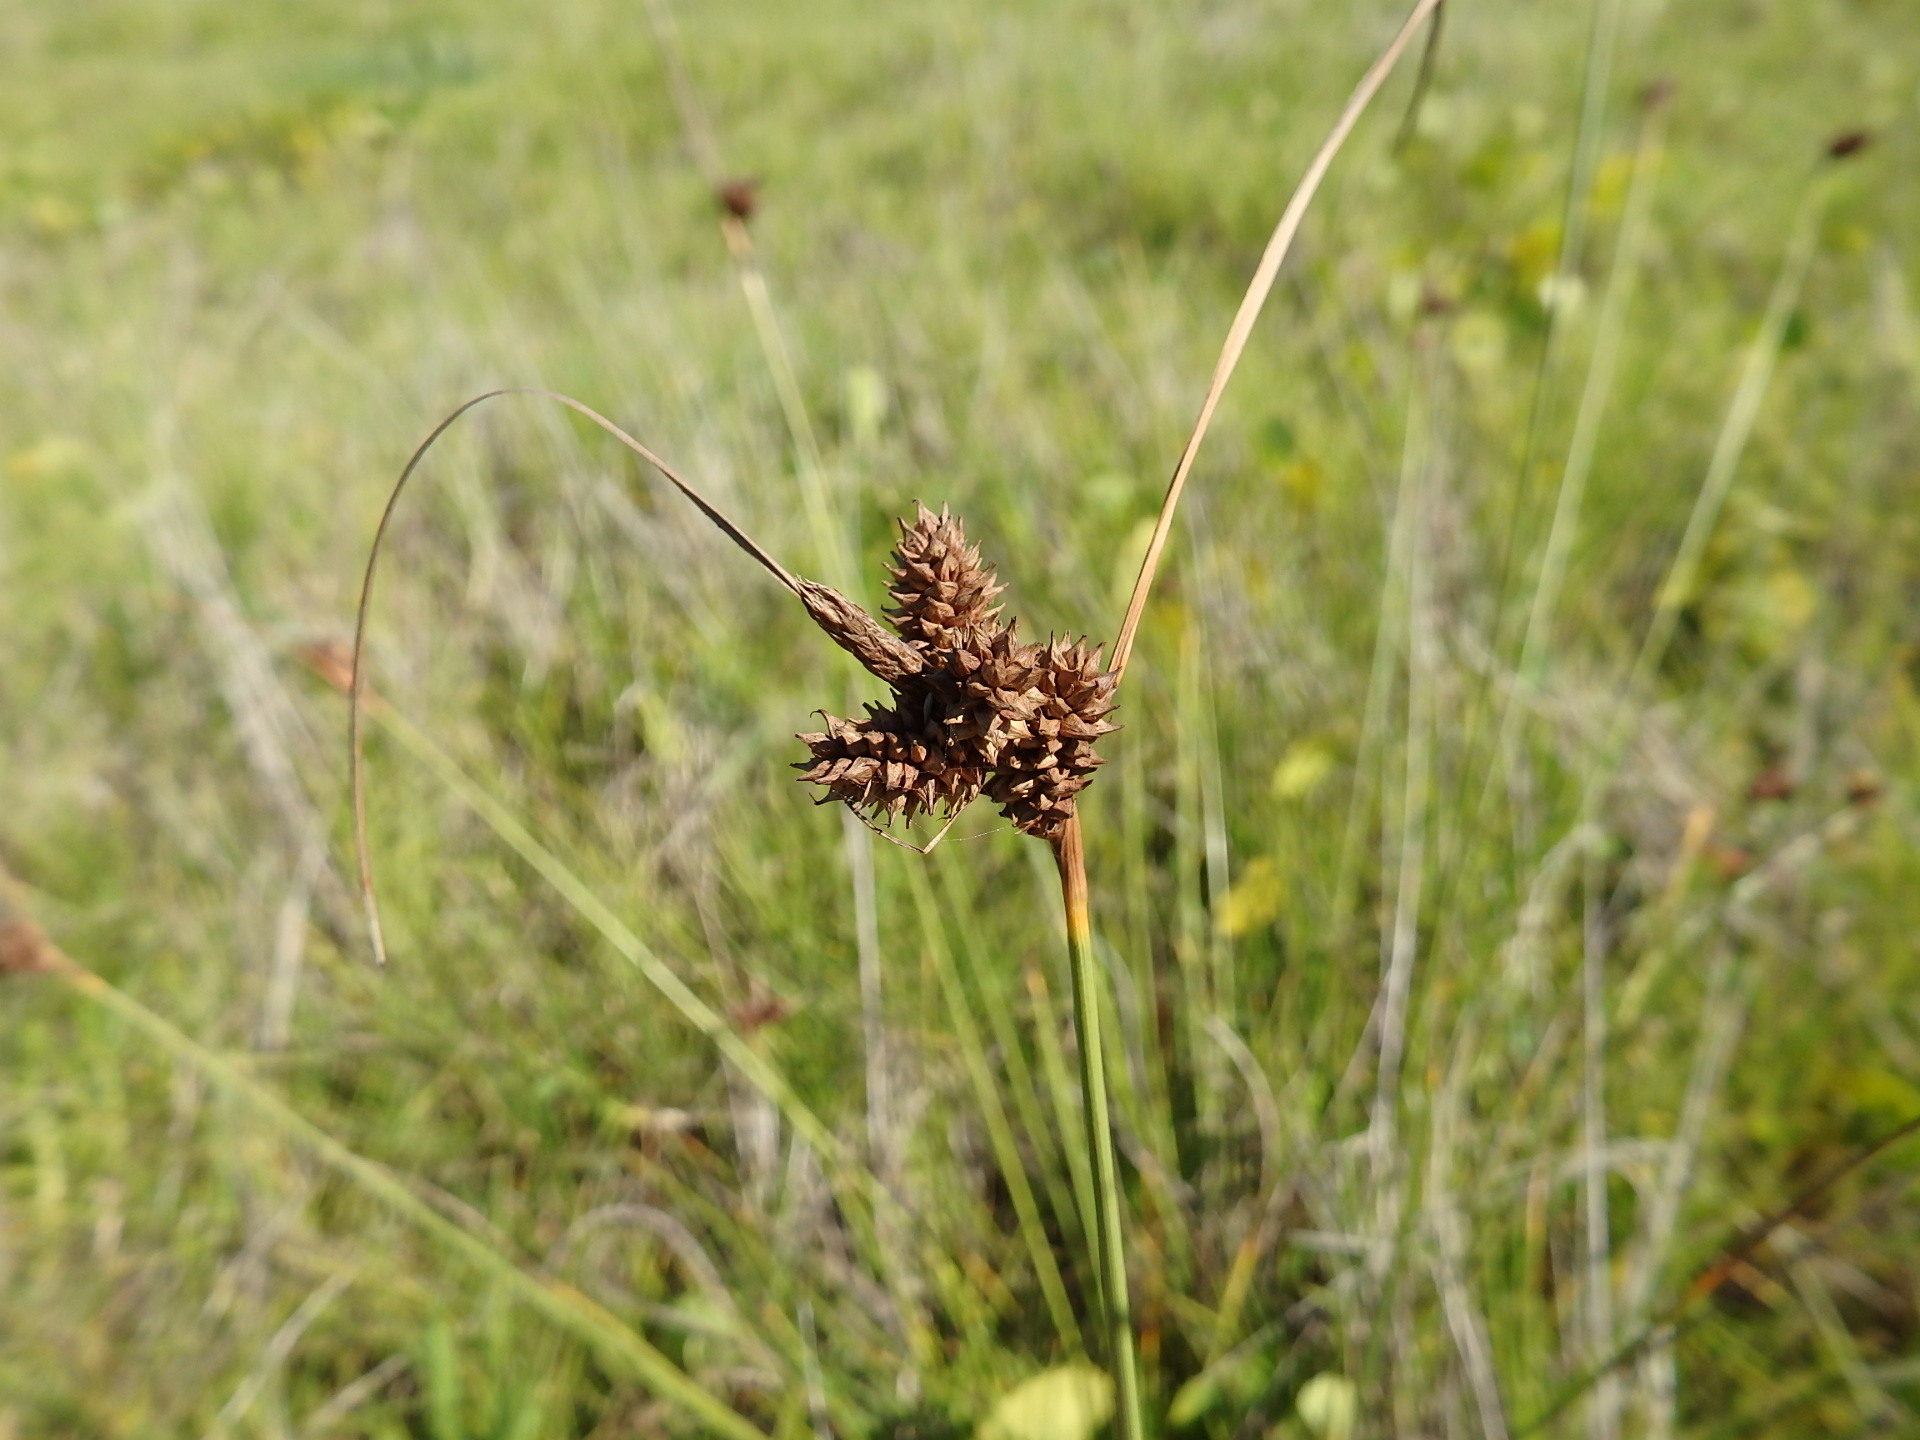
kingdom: Plantae
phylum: Tracheophyta
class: Liliopsida
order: Poales
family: Cyperaceae
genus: Carex
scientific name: Carex extensa
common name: Long-bracted sedge
